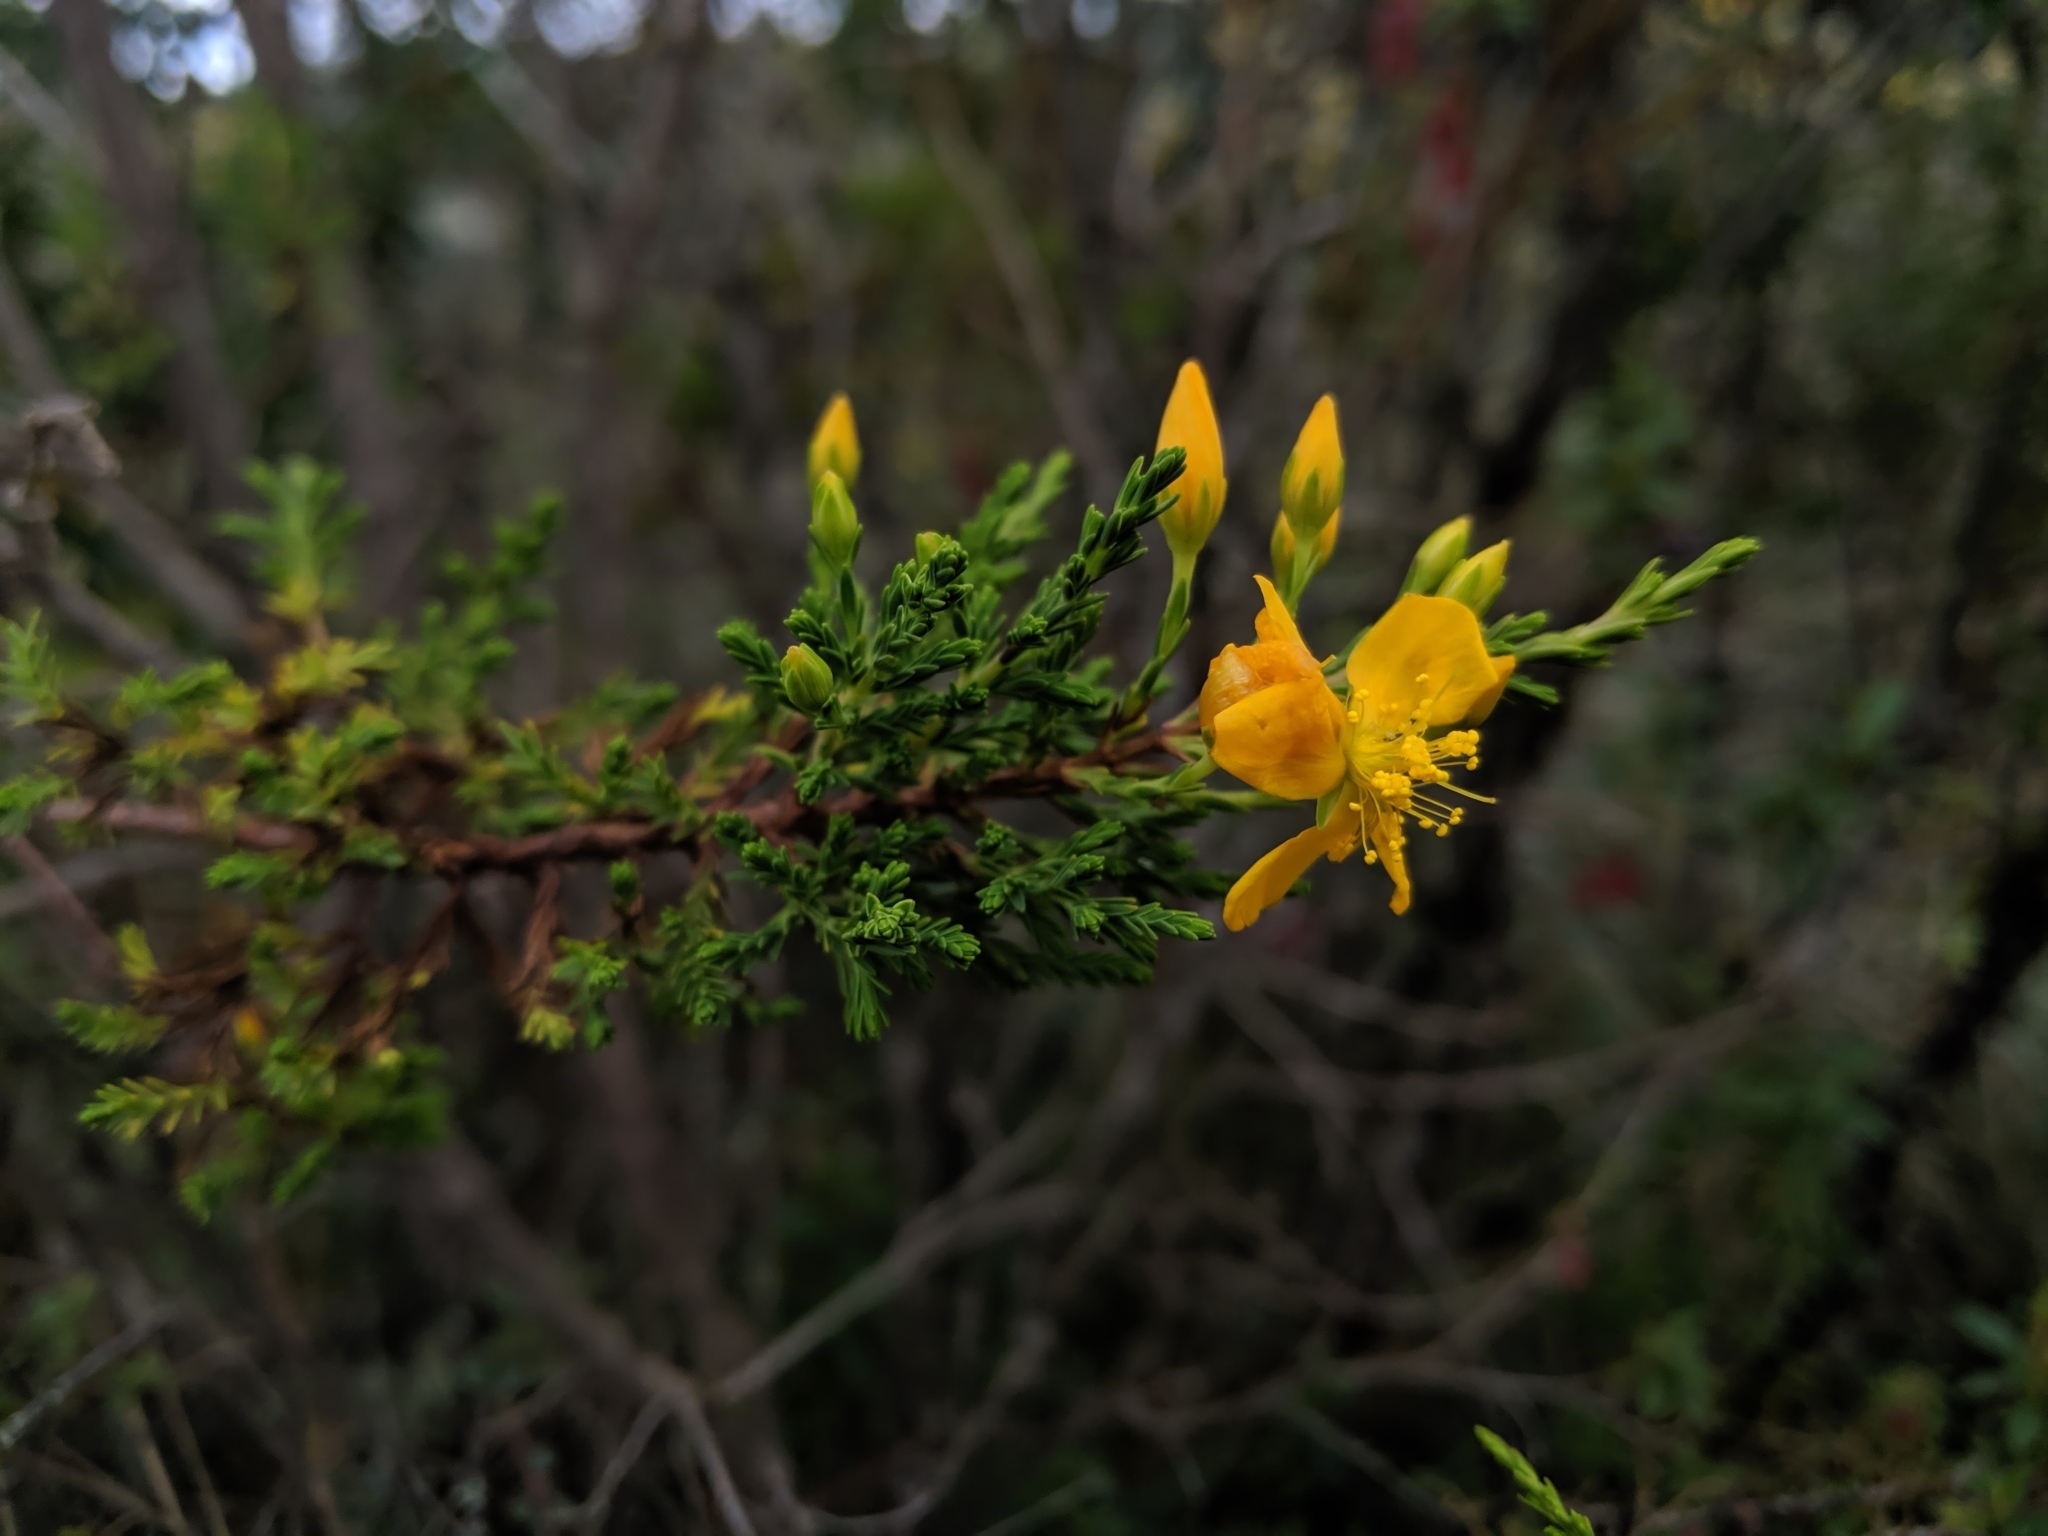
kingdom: Plantae
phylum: Tracheophyta
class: Magnoliopsida
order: Malpighiales
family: Hypericaceae
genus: Hypericum
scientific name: Hypericum laricifolium
